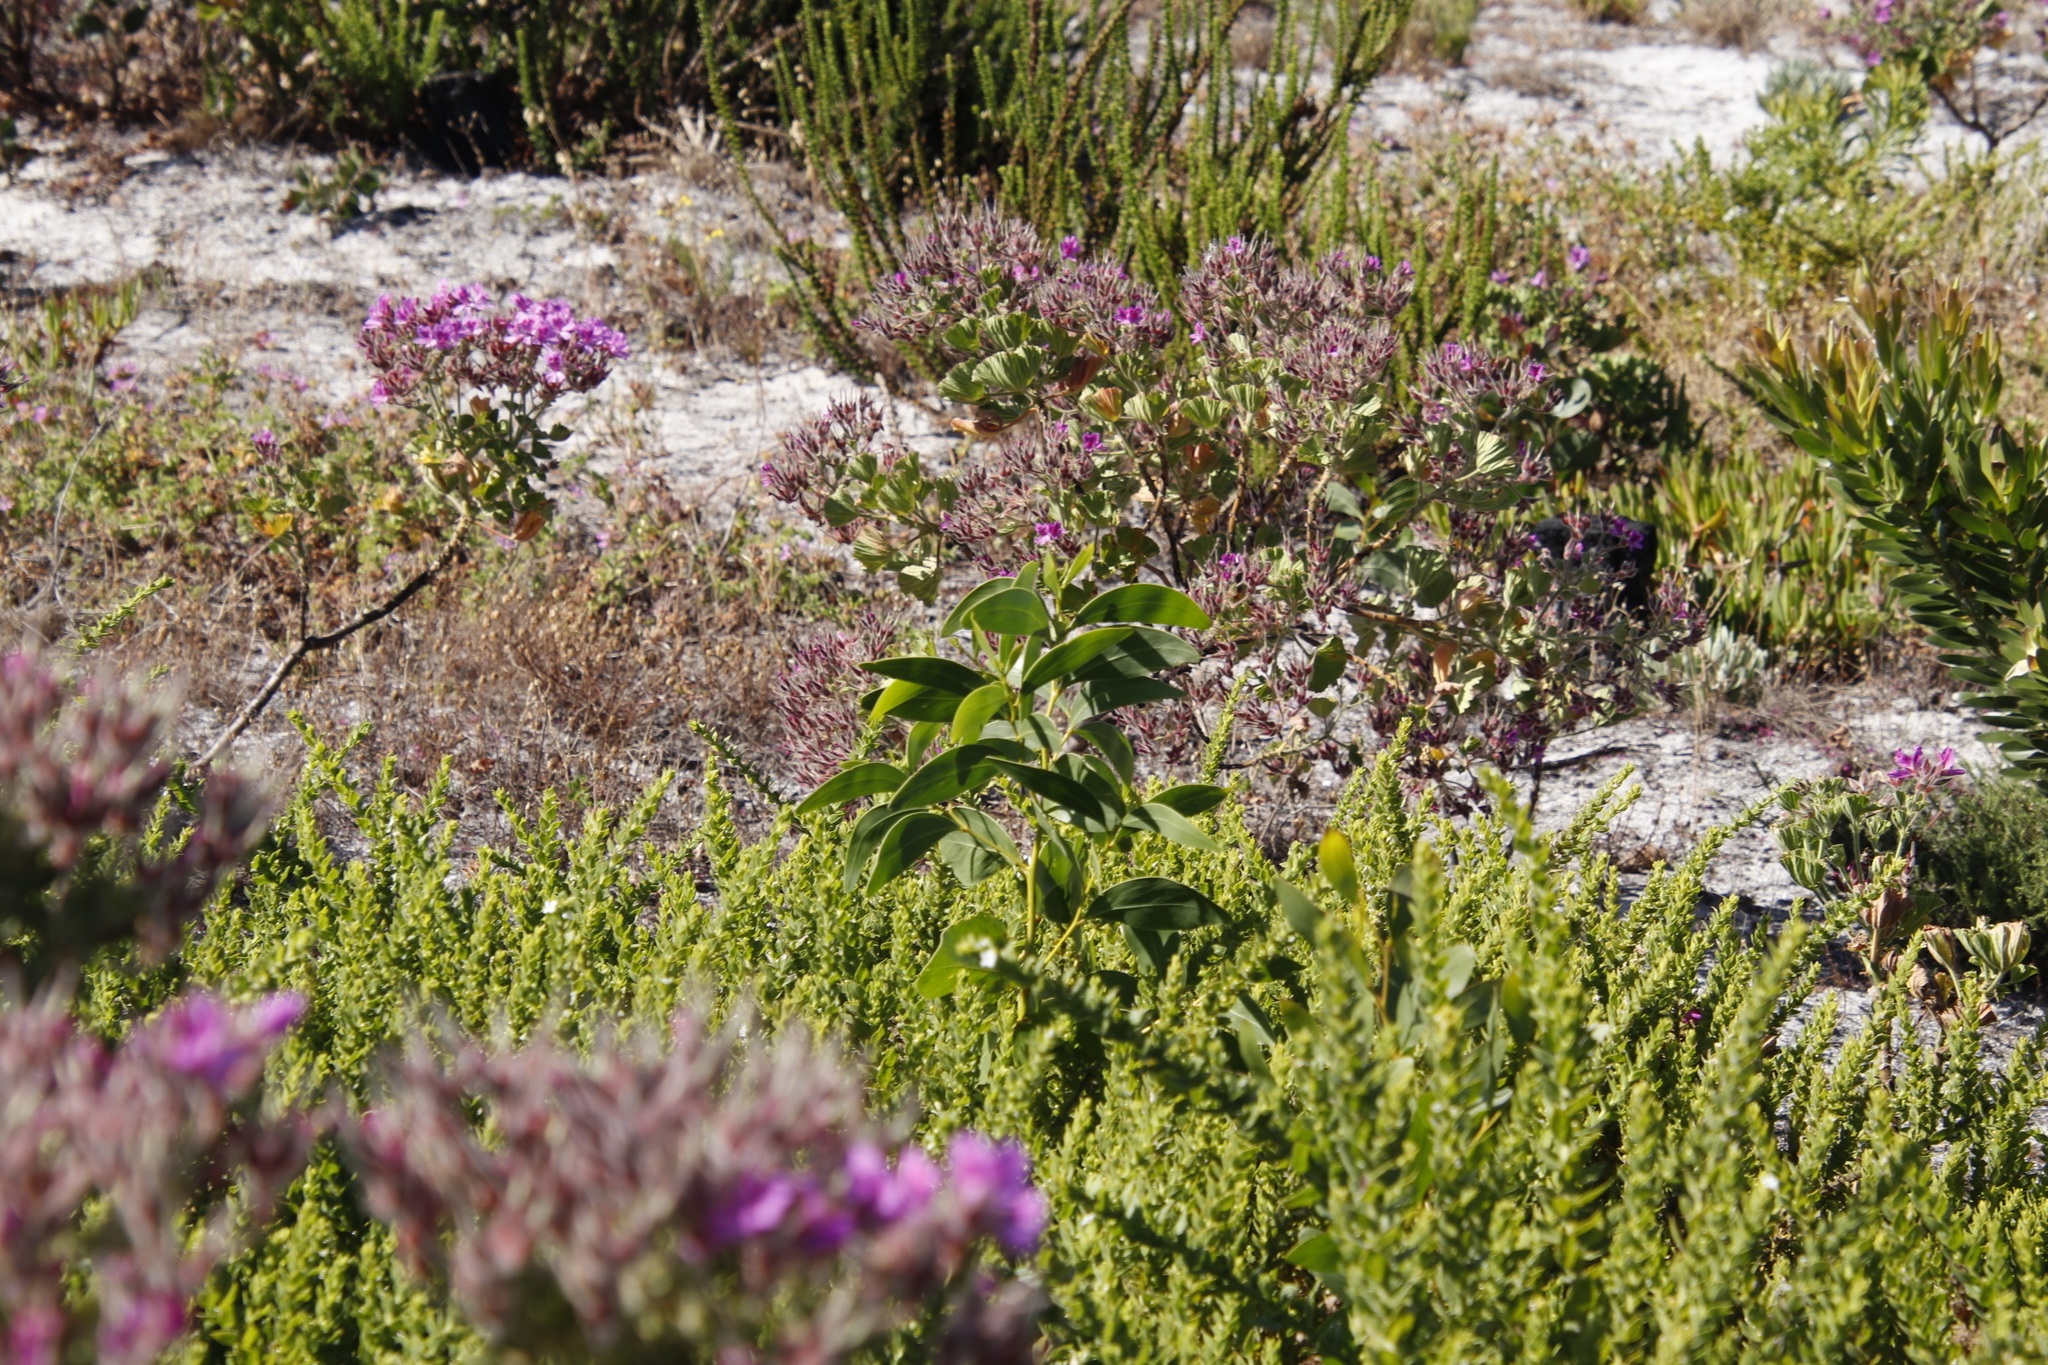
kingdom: Plantae
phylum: Tracheophyta
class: Magnoliopsida
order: Fabales
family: Fabaceae
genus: Acacia
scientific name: Acacia pycnantha
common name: Golden wattle
